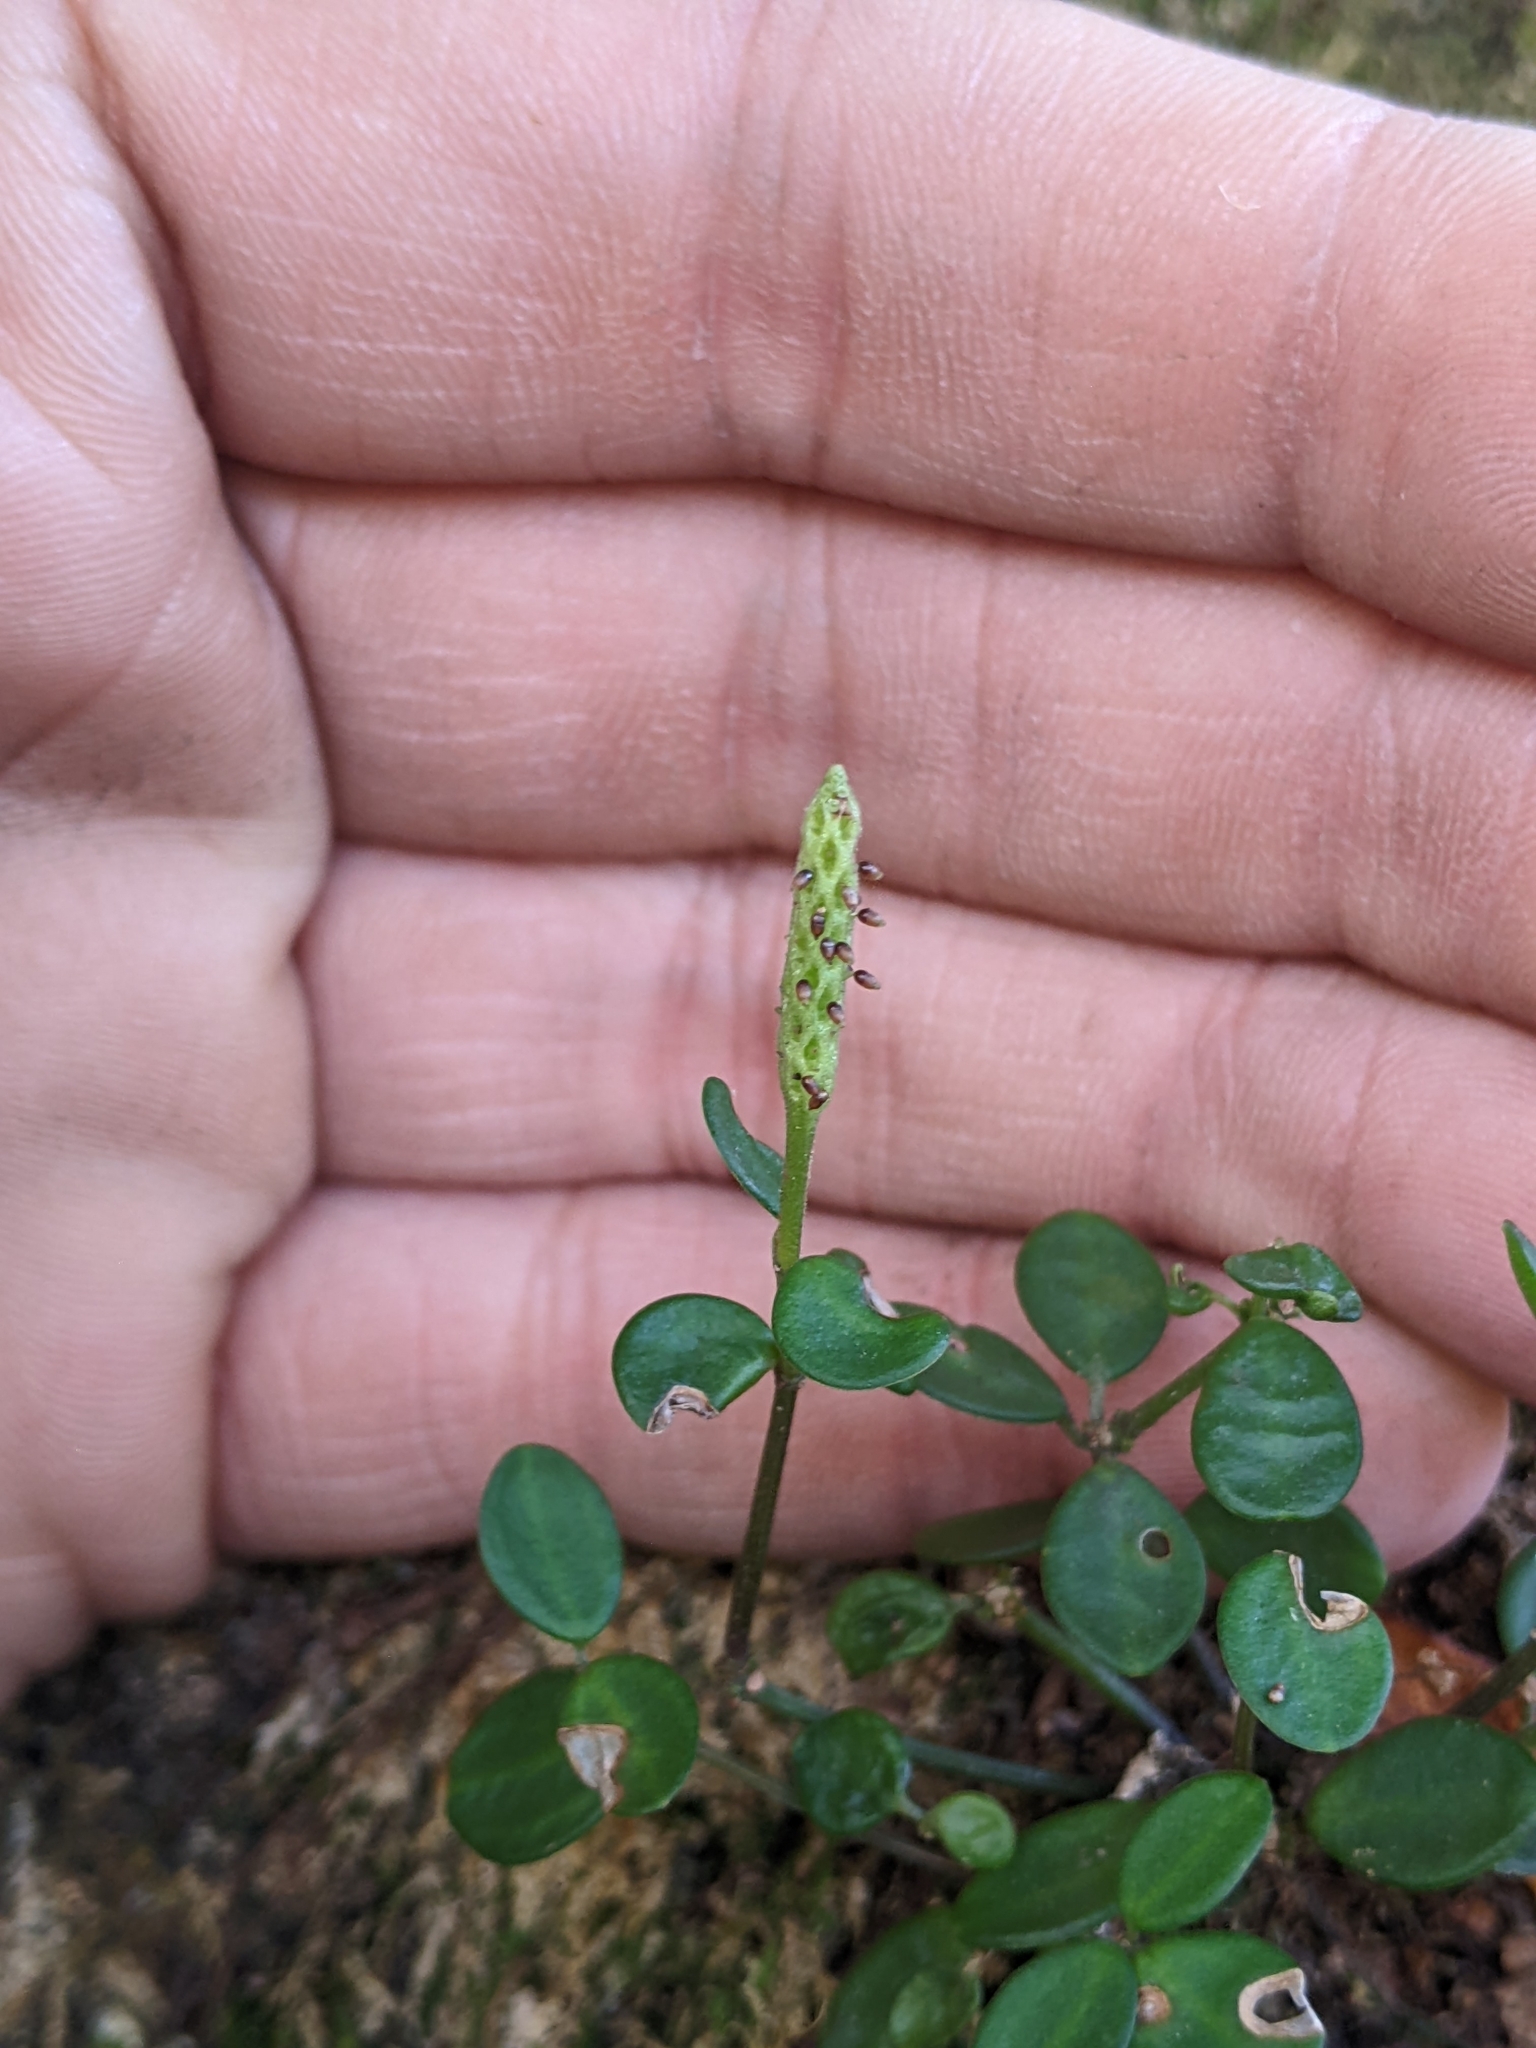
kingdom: Plantae
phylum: Tracheophyta
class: Magnoliopsida
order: Piperales
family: Piperaceae
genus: Peperomia
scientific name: Peperomia tetraphylla
